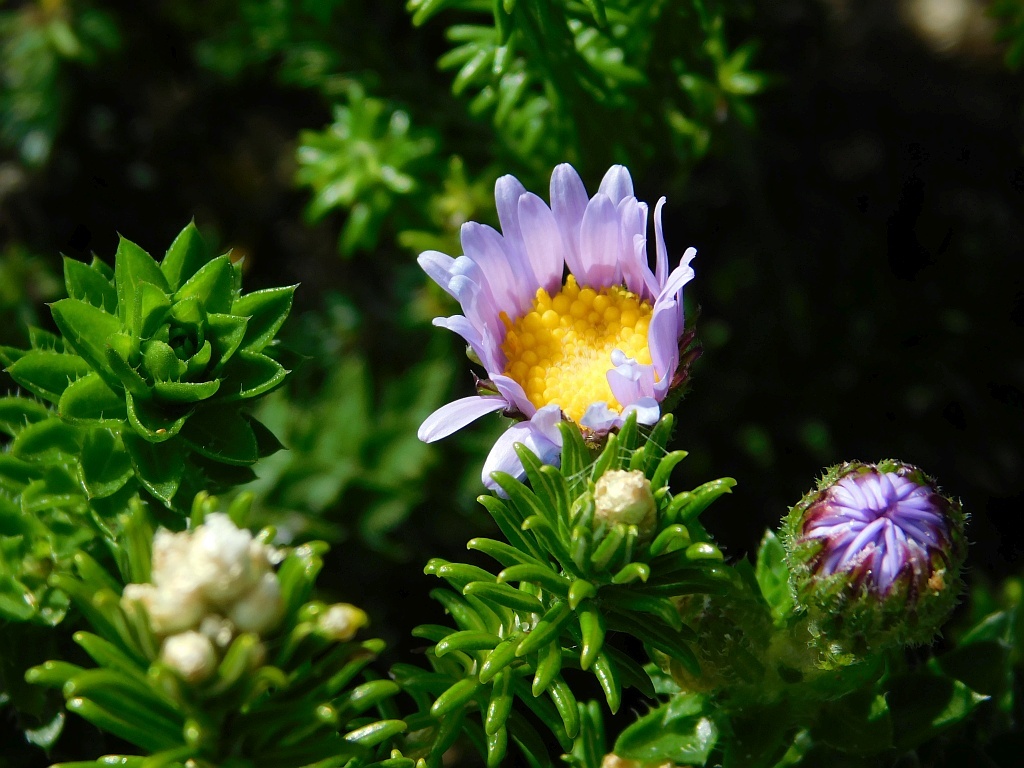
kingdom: Plantae
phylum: Tracheophyta
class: Magnoliopsida
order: Asterales
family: Asteraceae
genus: Felicia
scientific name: Felicia echinata
